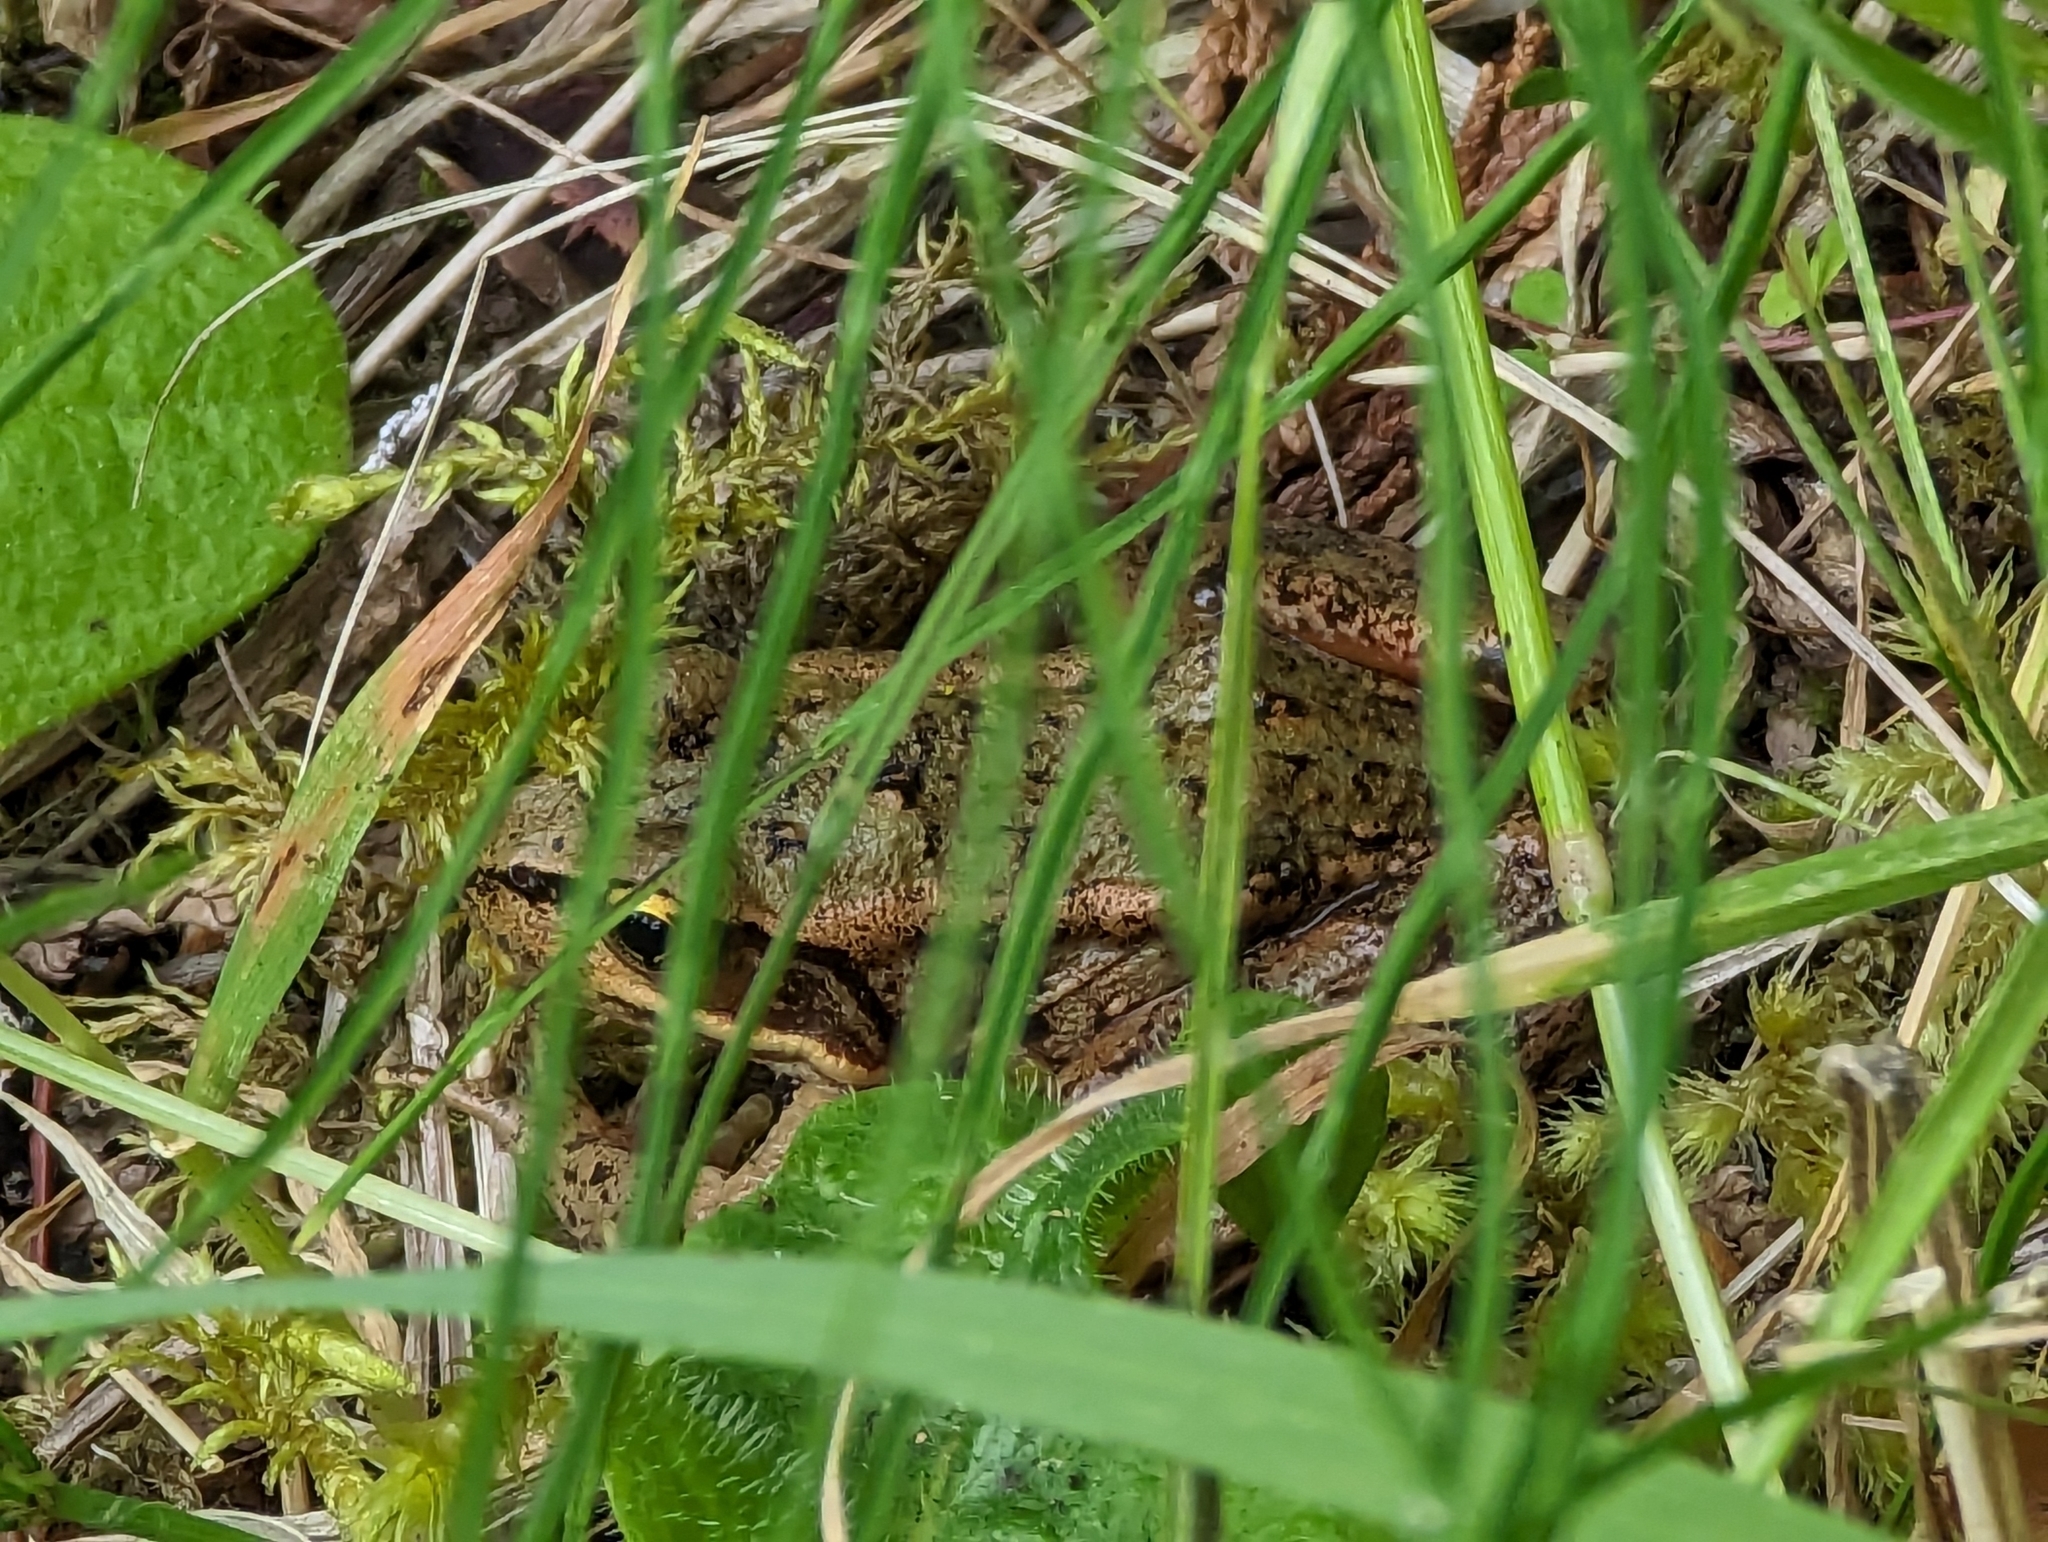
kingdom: Animalia
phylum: Chordata
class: Amphibia
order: Anura
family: Ranidae
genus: Rana
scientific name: Rana aurora
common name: Red-legged frog
